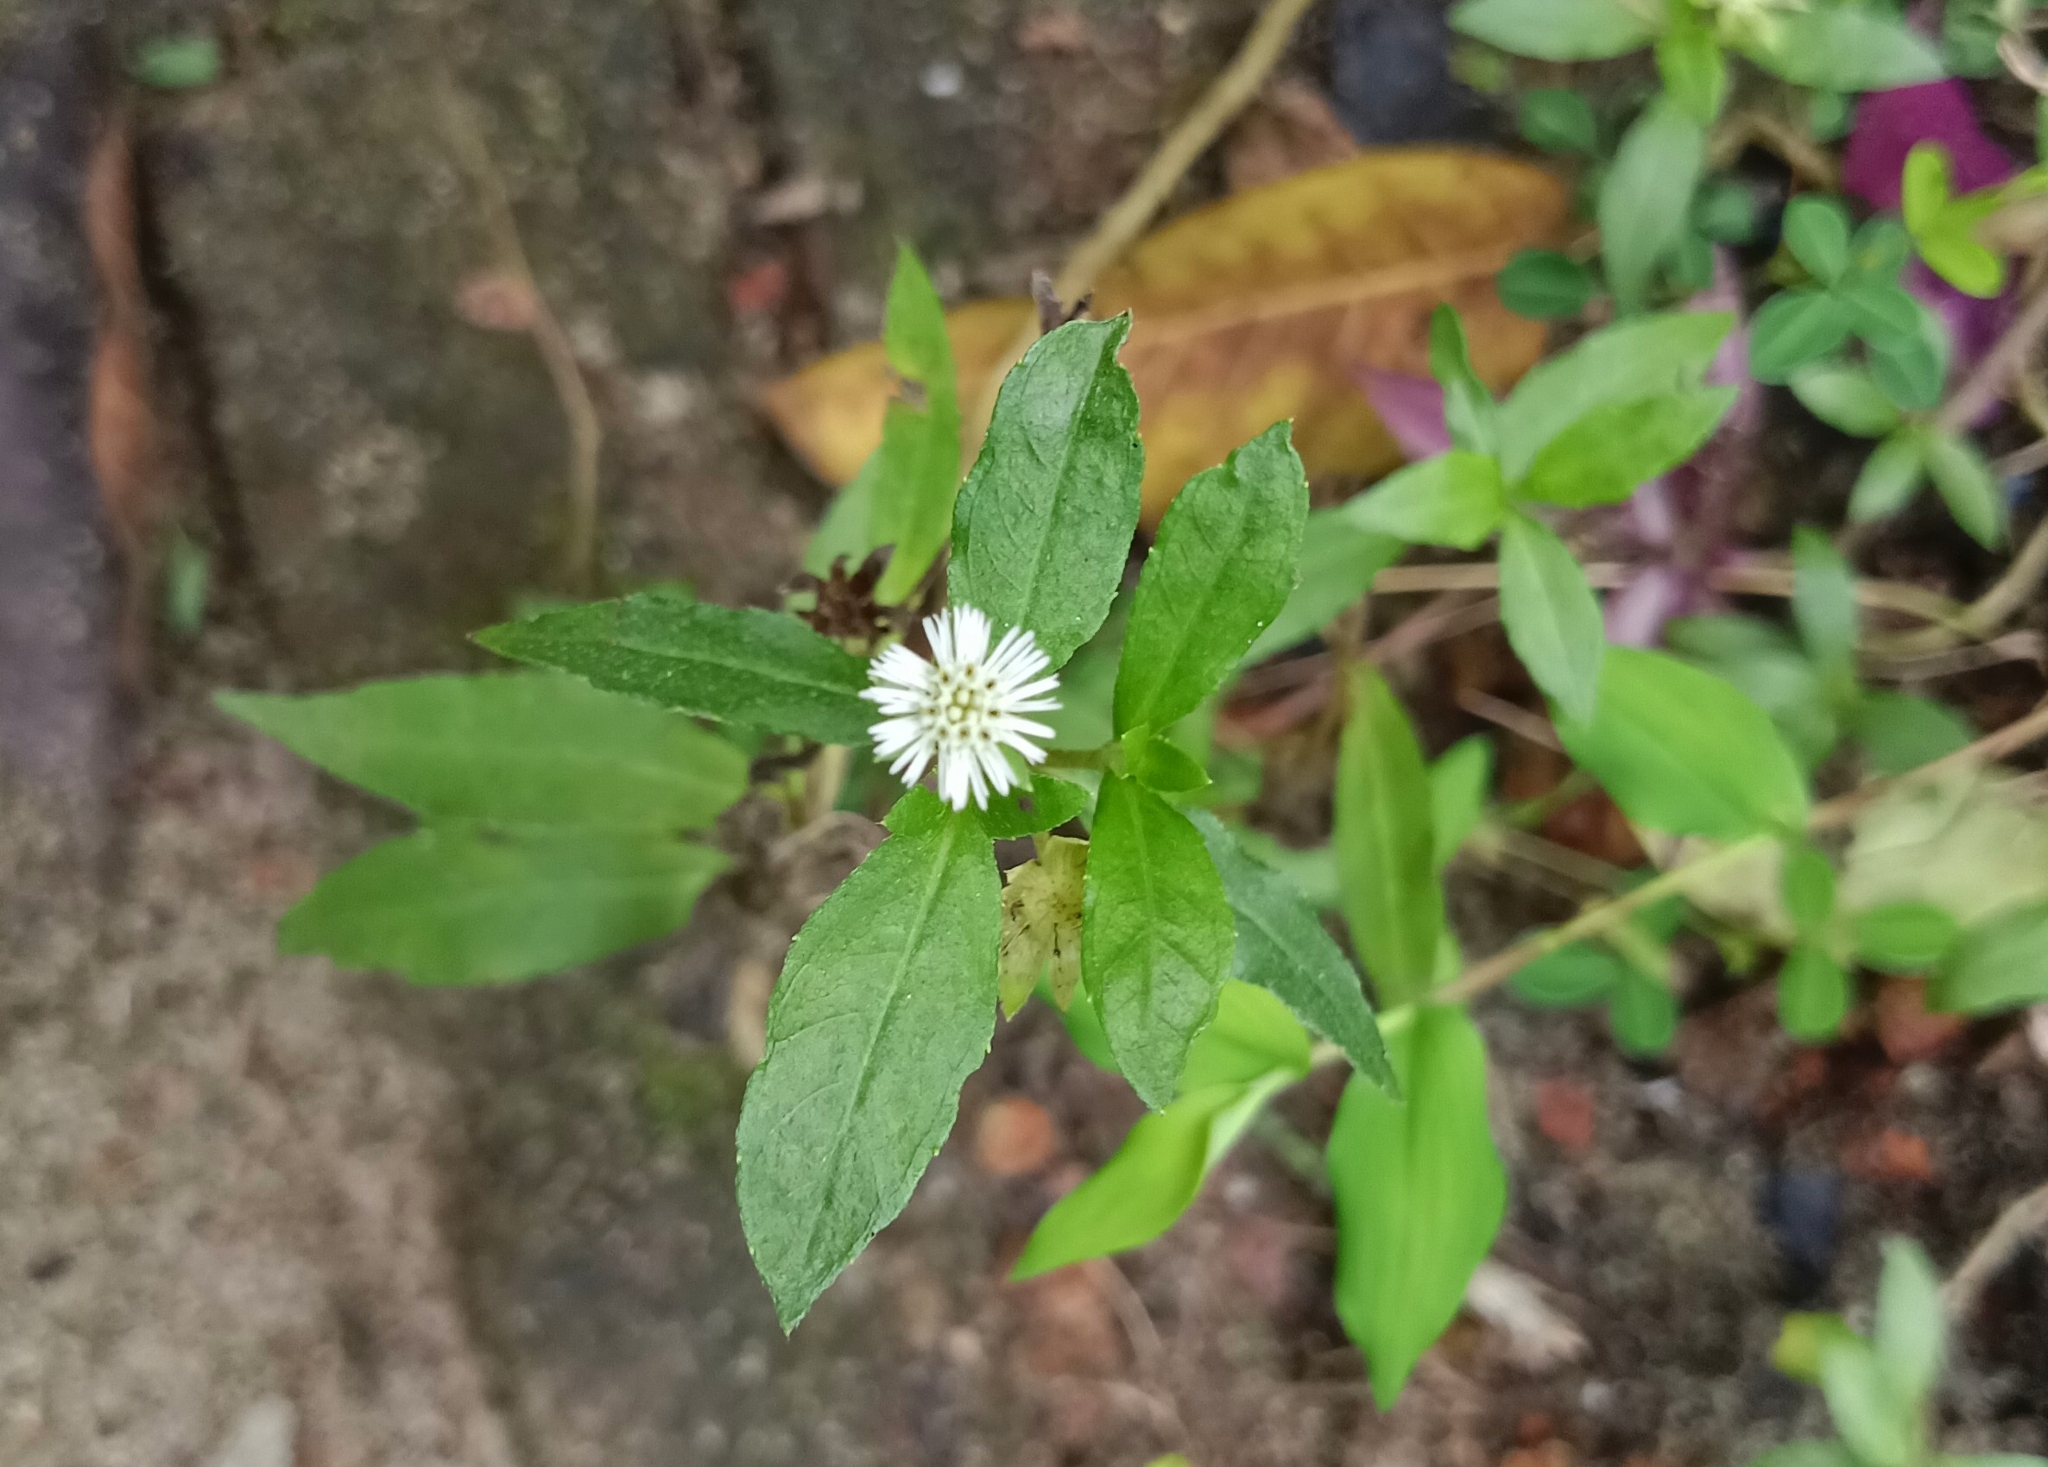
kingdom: Plantae
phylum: Tracheophyta
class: Magnoliopsida
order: Asterales
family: Asteraceae
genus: Eclipta
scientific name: Eclipta prostrata
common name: False daisy
